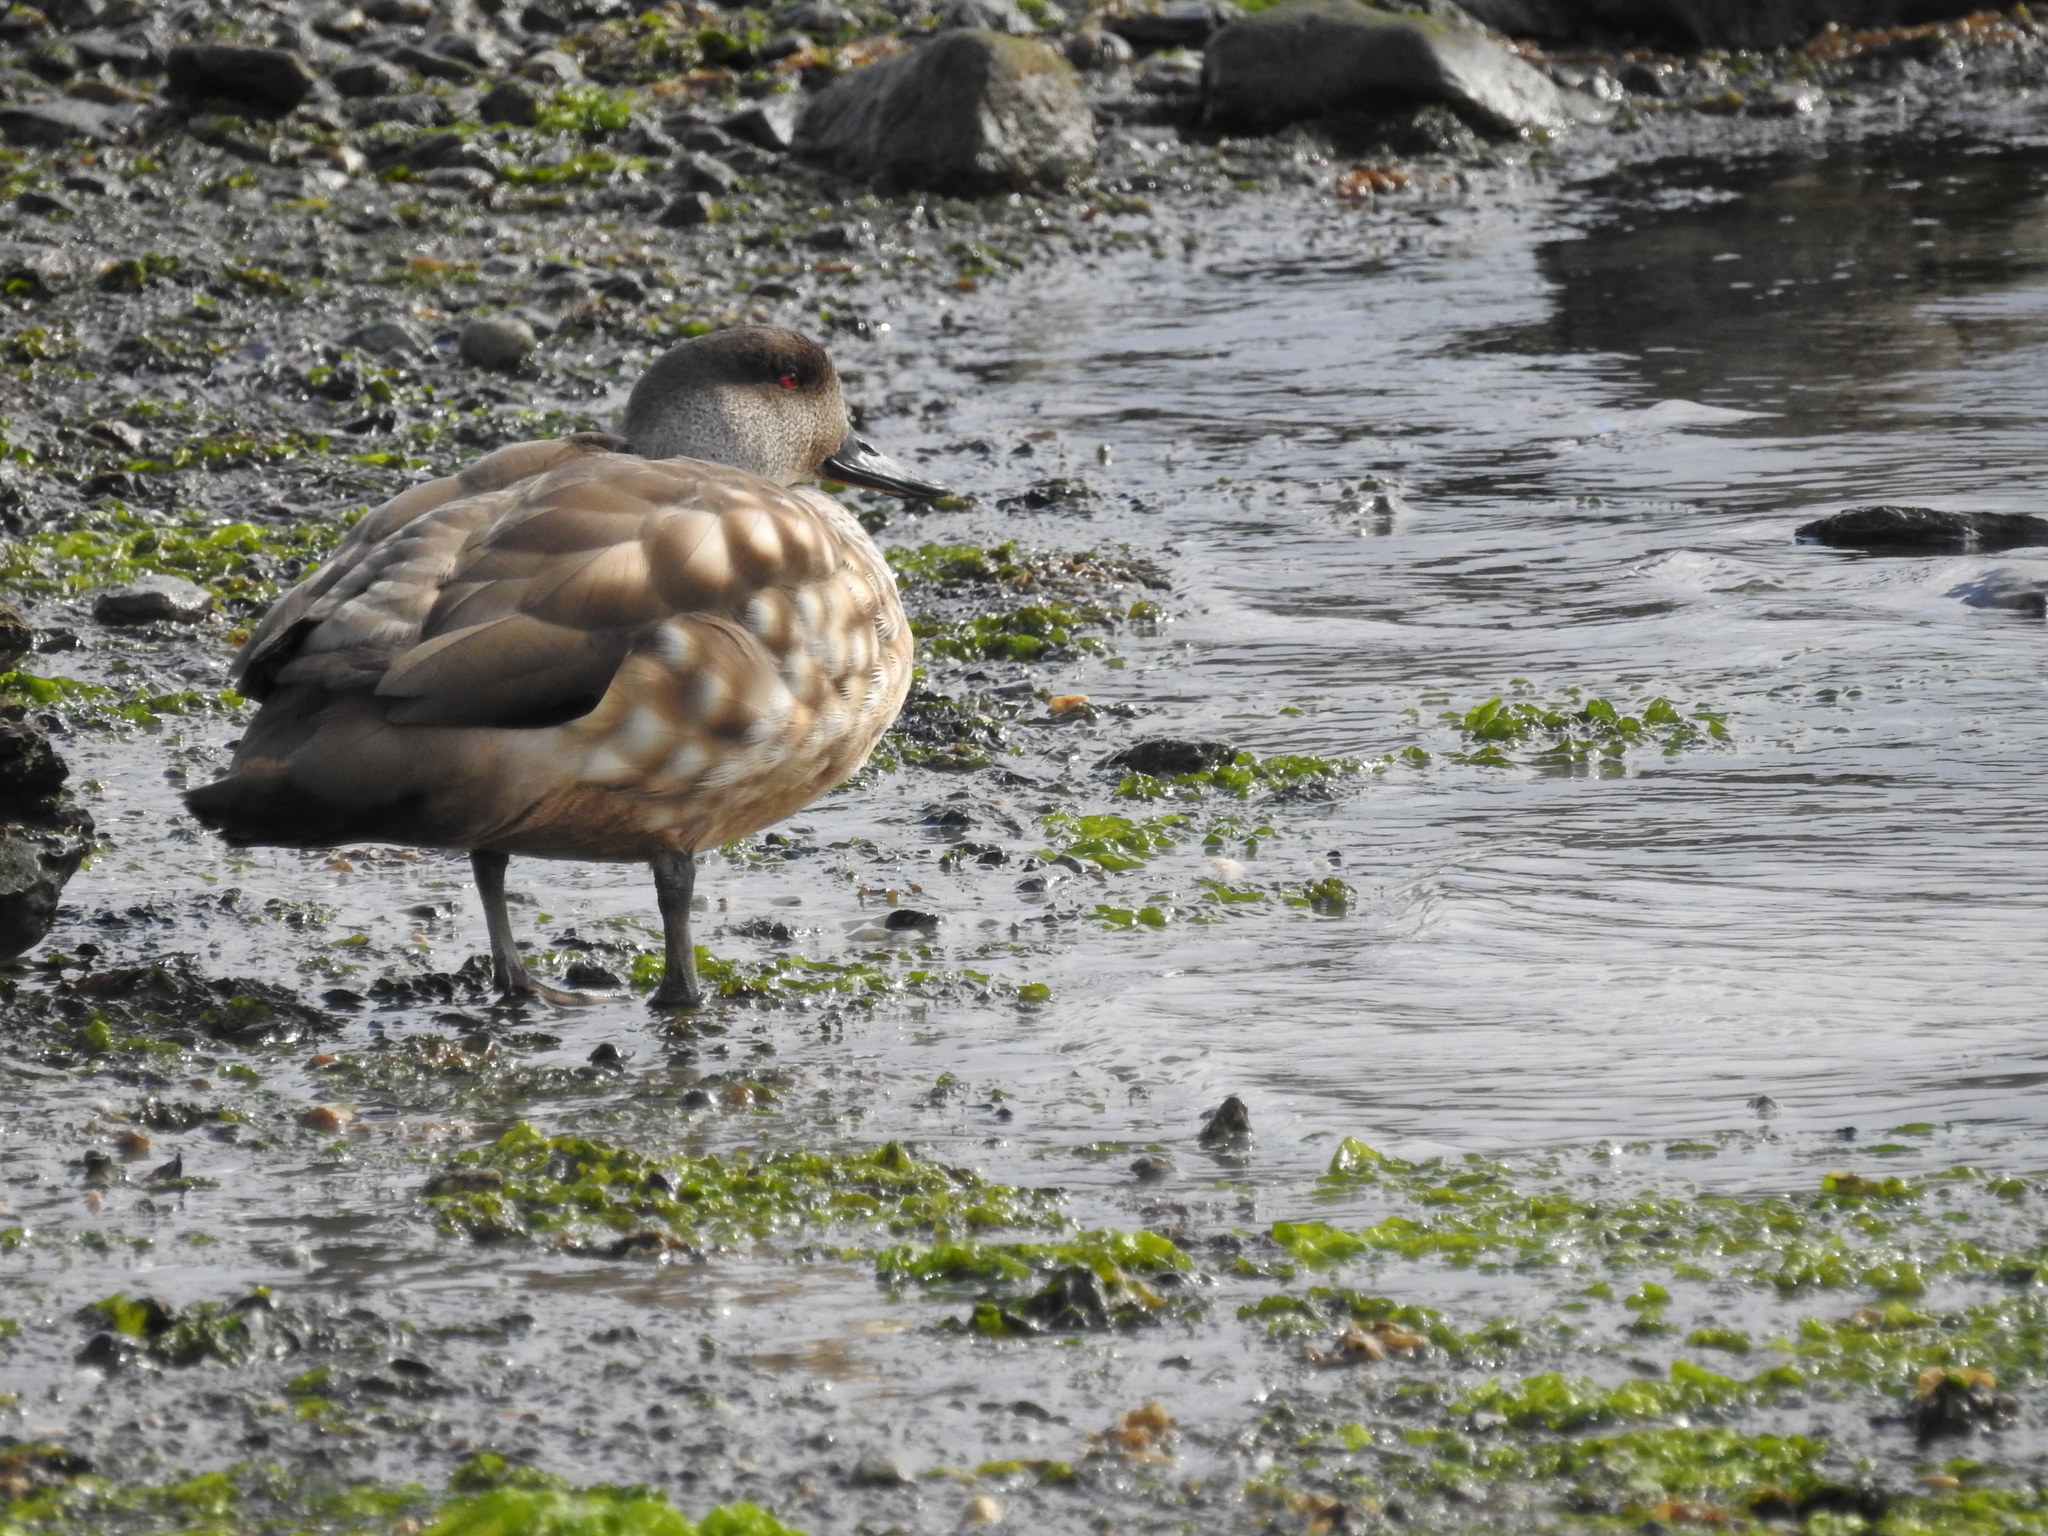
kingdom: Animalia
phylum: Chordata
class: Aves
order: Anseriformes
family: Anatidae
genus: Lophonetta
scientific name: Lophonetta specularioides
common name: Crested duck
